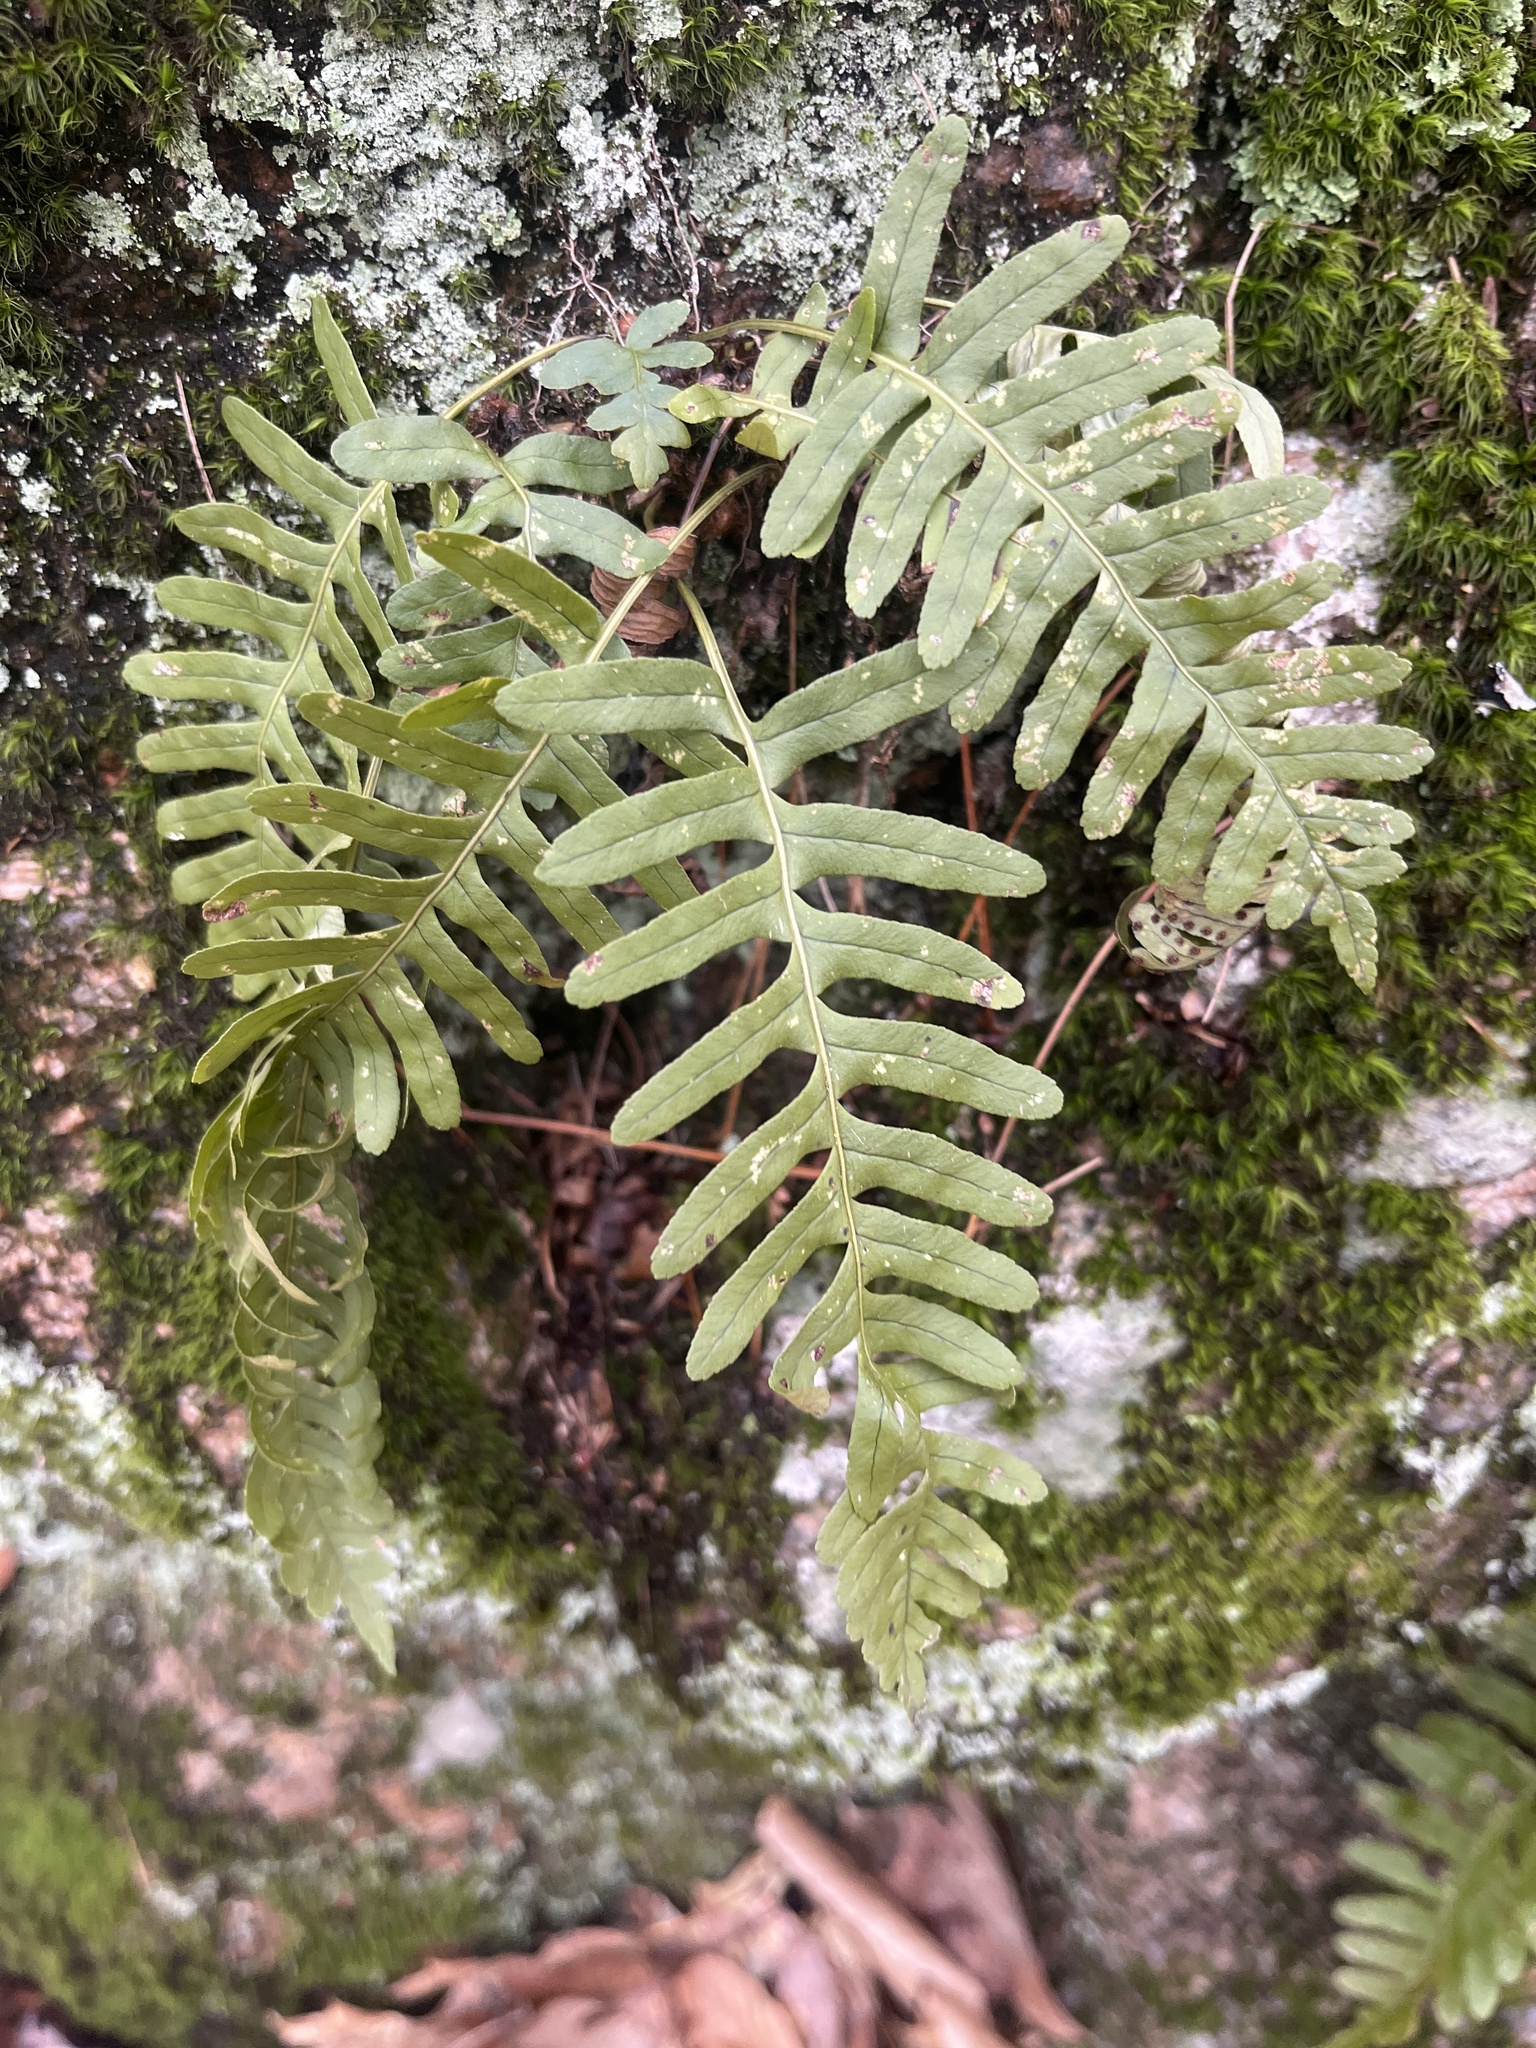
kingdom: Plantae
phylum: Tracheophyta
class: Polypodiopsida
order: Polypodiales
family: Polypodiaceae
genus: Polypodium
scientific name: Polypodium virginianum
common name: American wall fern
